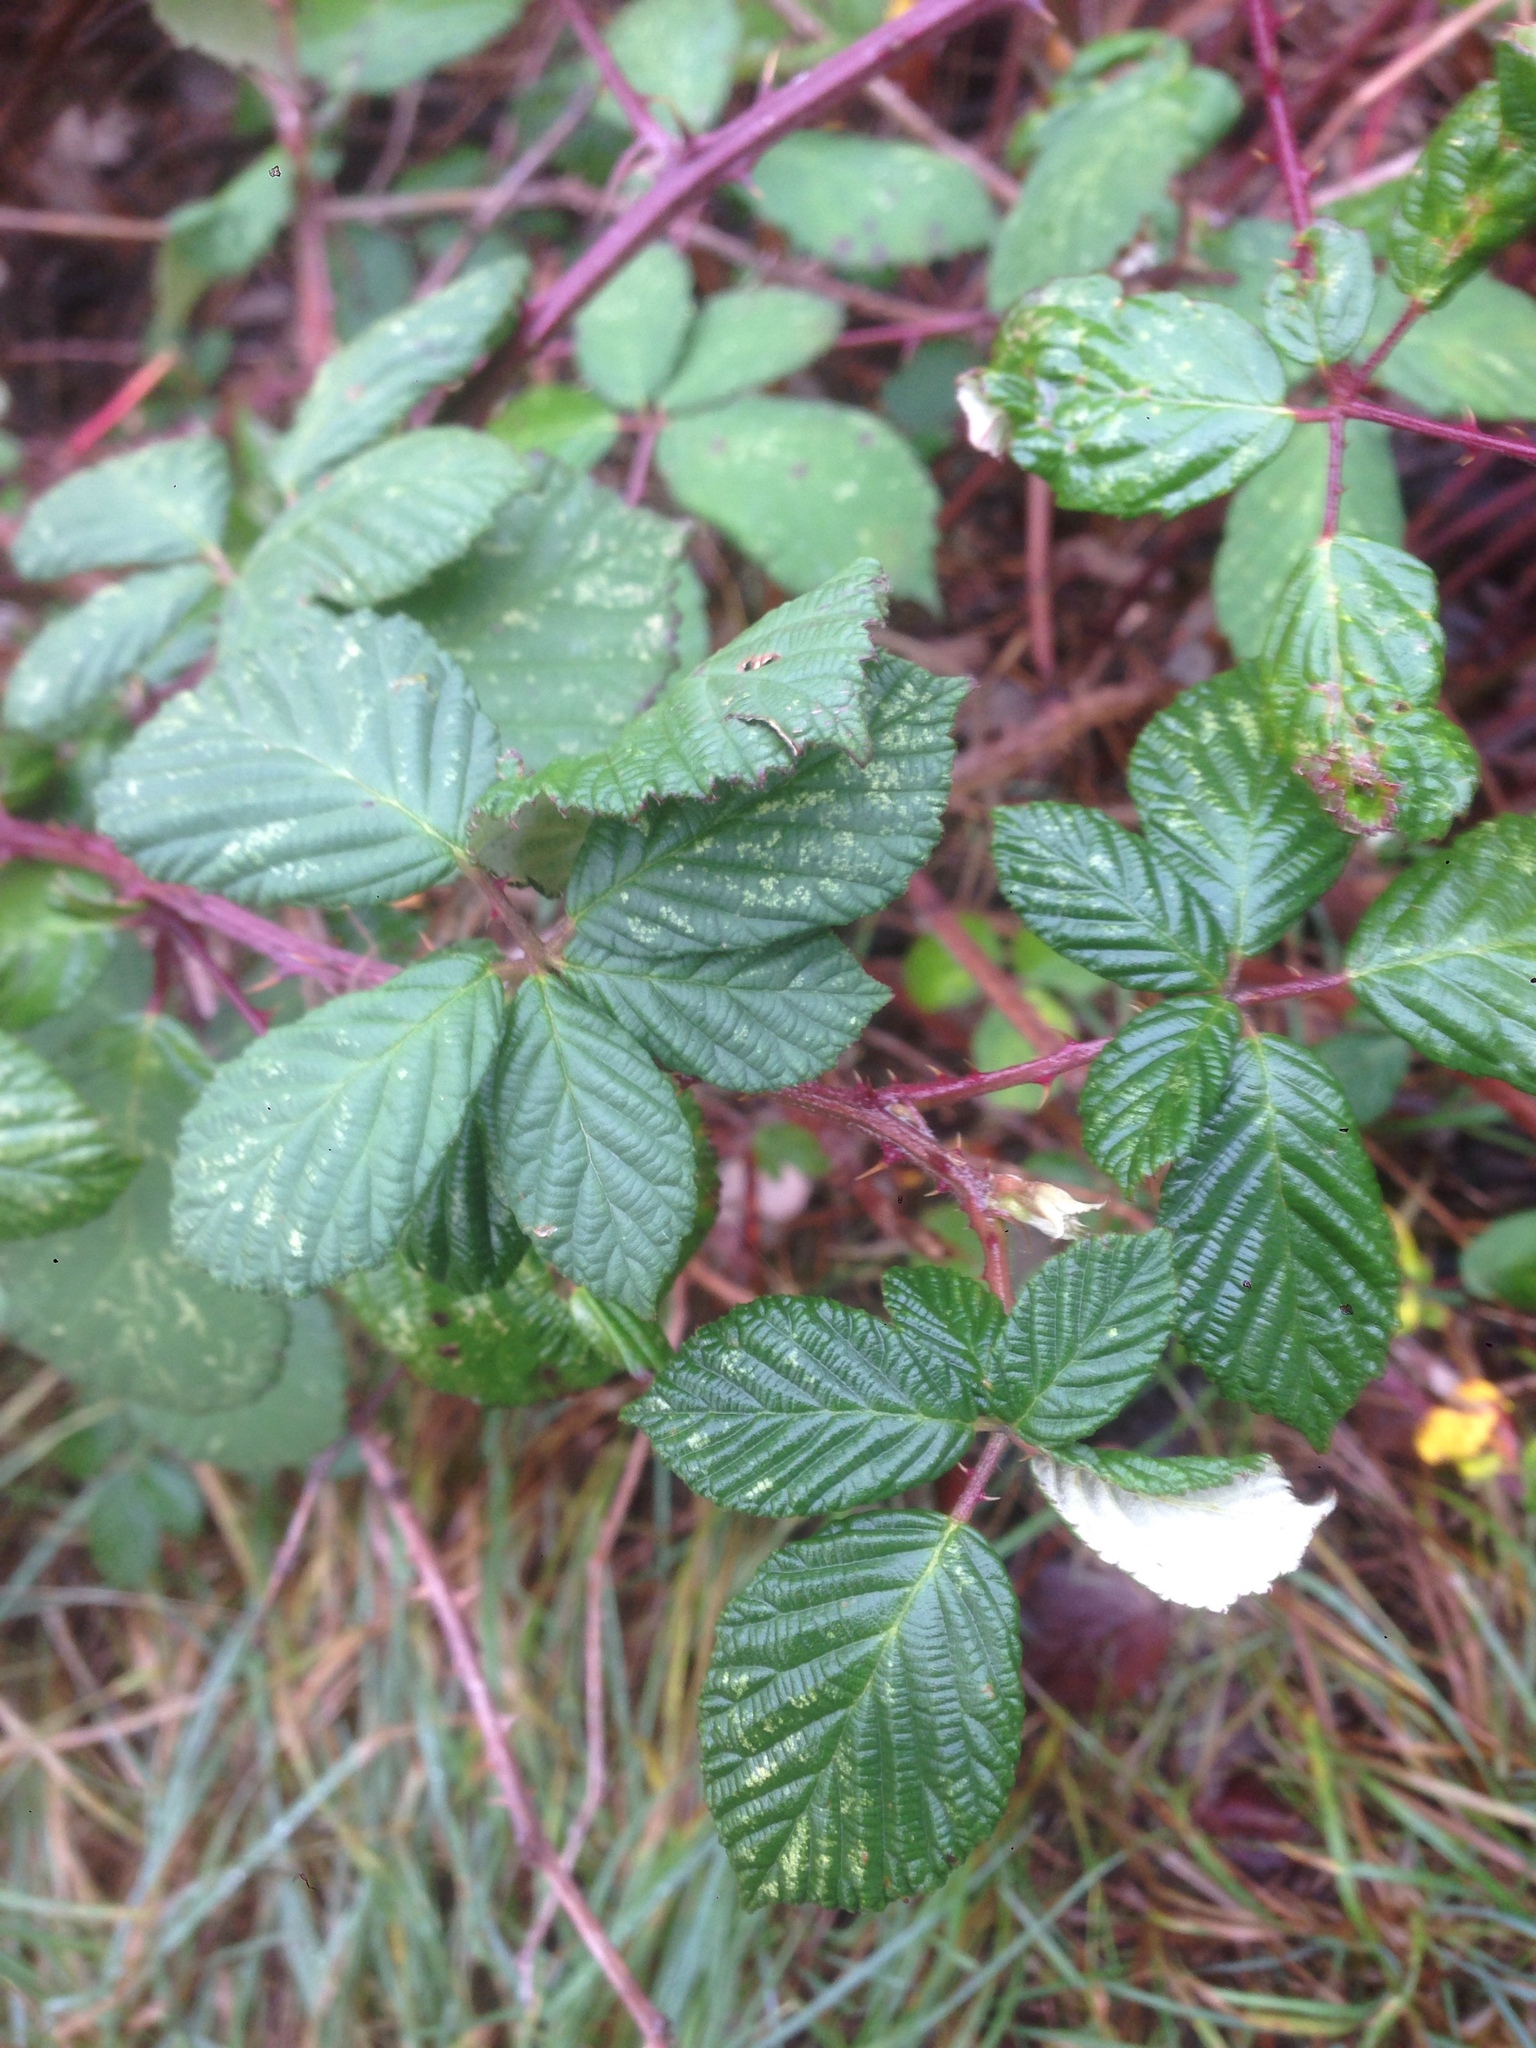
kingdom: Plantae
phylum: Tracheophyta
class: Magnoliopsida
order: Rosales
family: Rosaceae
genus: Rubus
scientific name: Rubus armeniacus
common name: Himalayan blackberry
